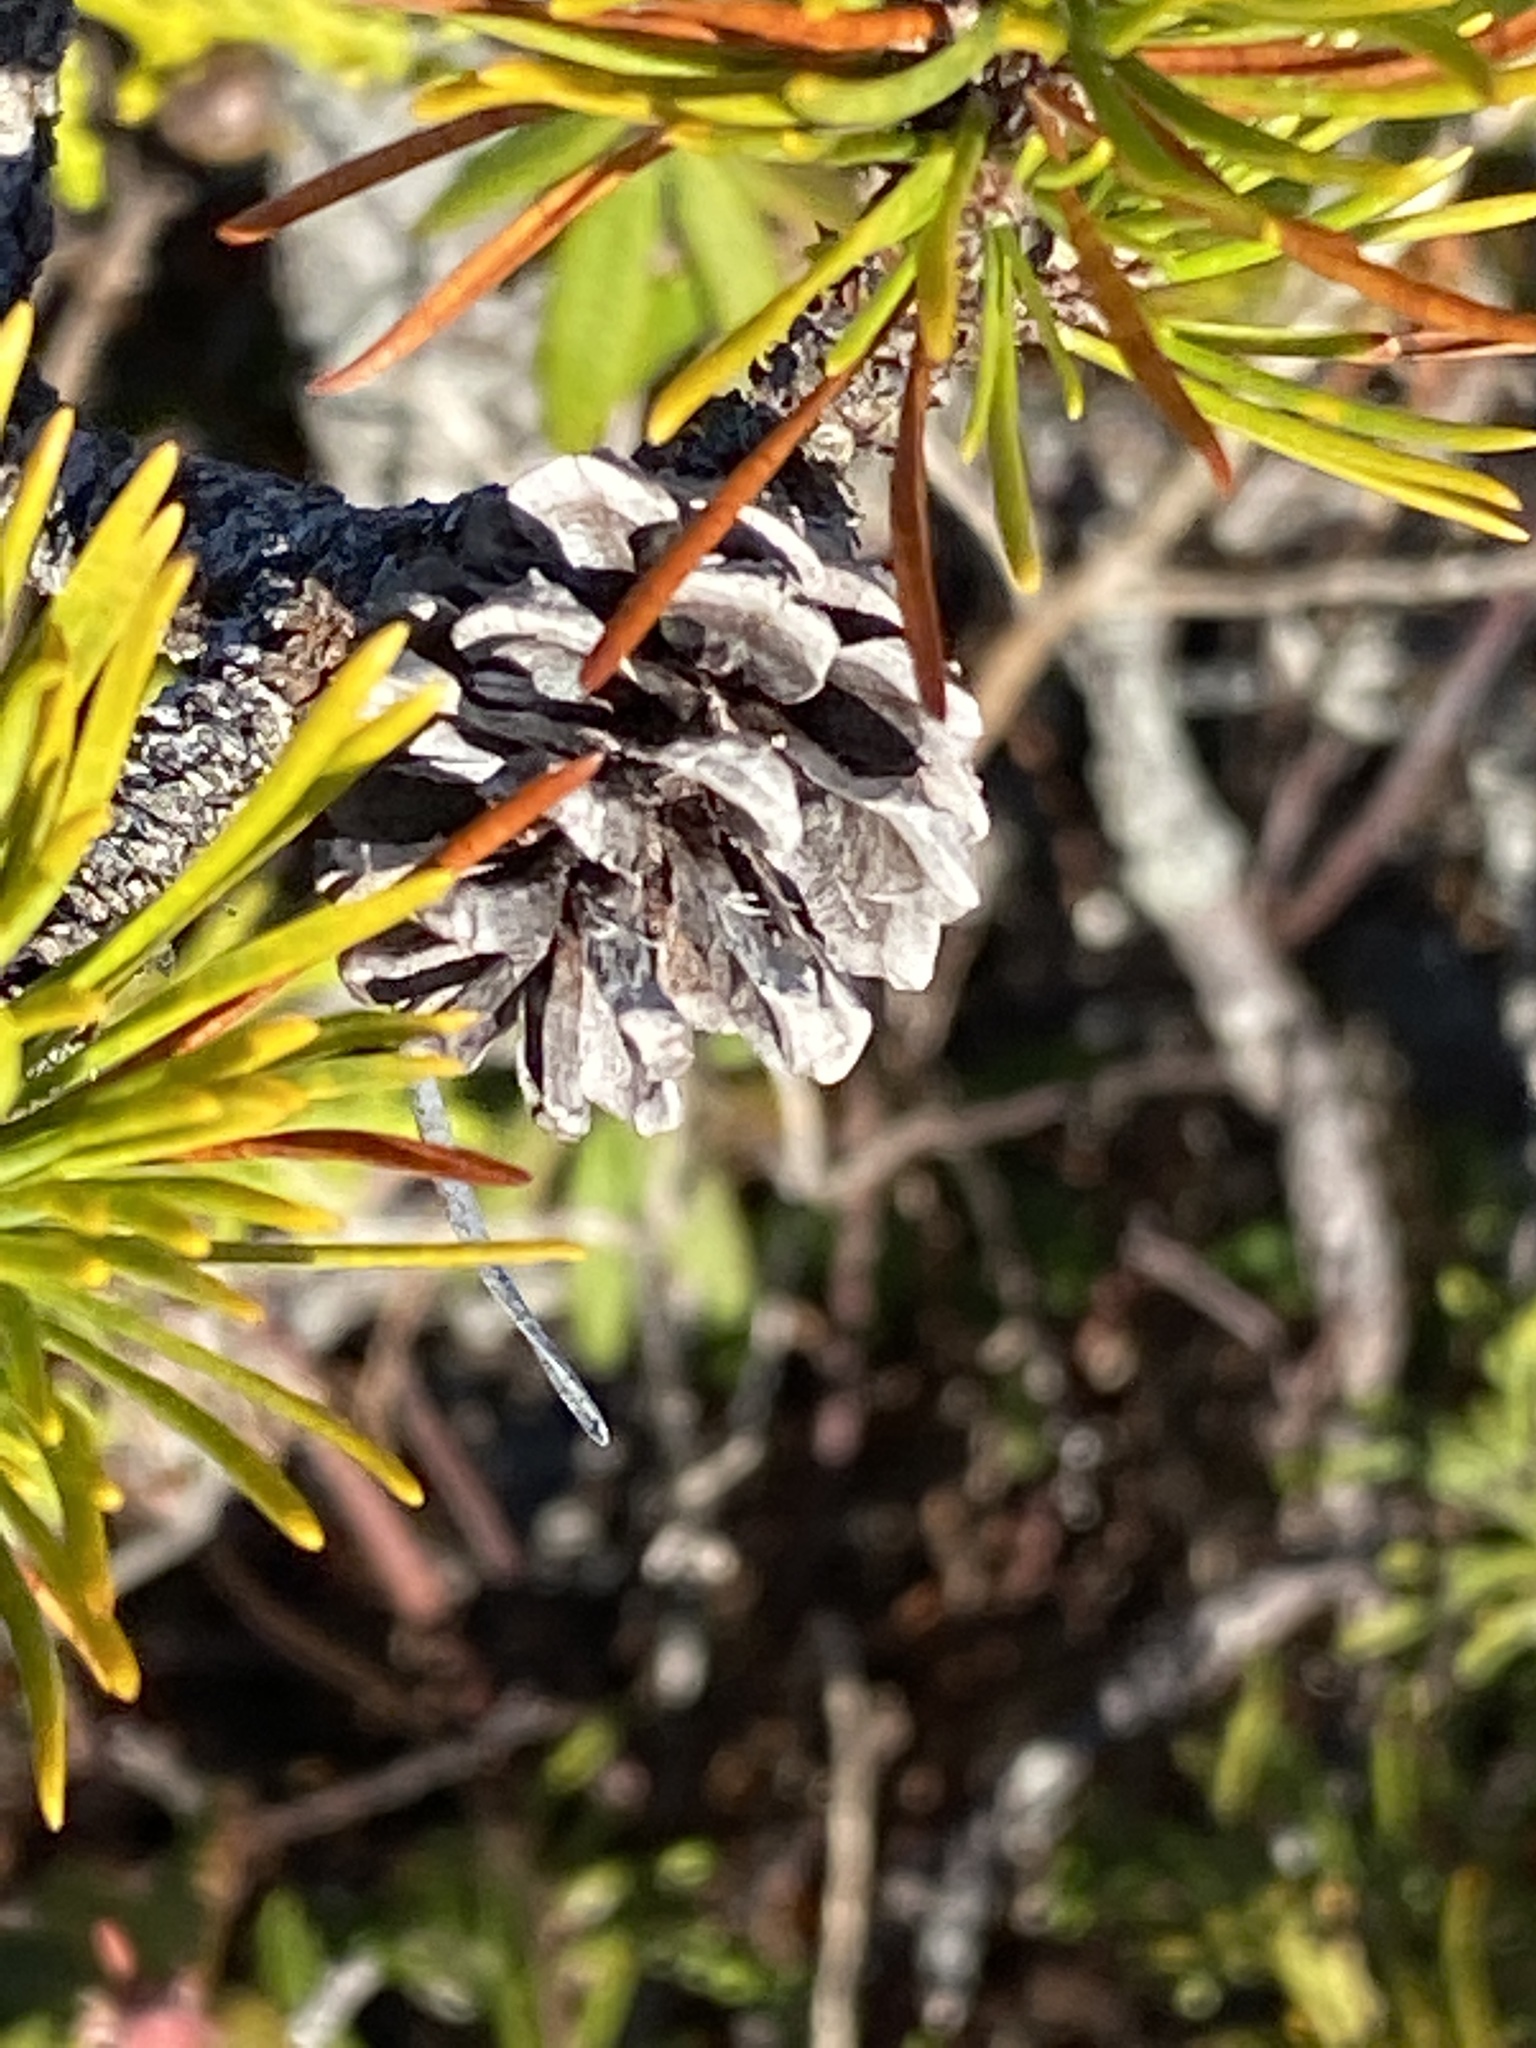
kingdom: Plantae
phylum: Tracheophyta
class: Pinopsida
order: Pinales
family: Pinaceae
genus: Pinus
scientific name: Pinus contorta
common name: Lodgepole pine
